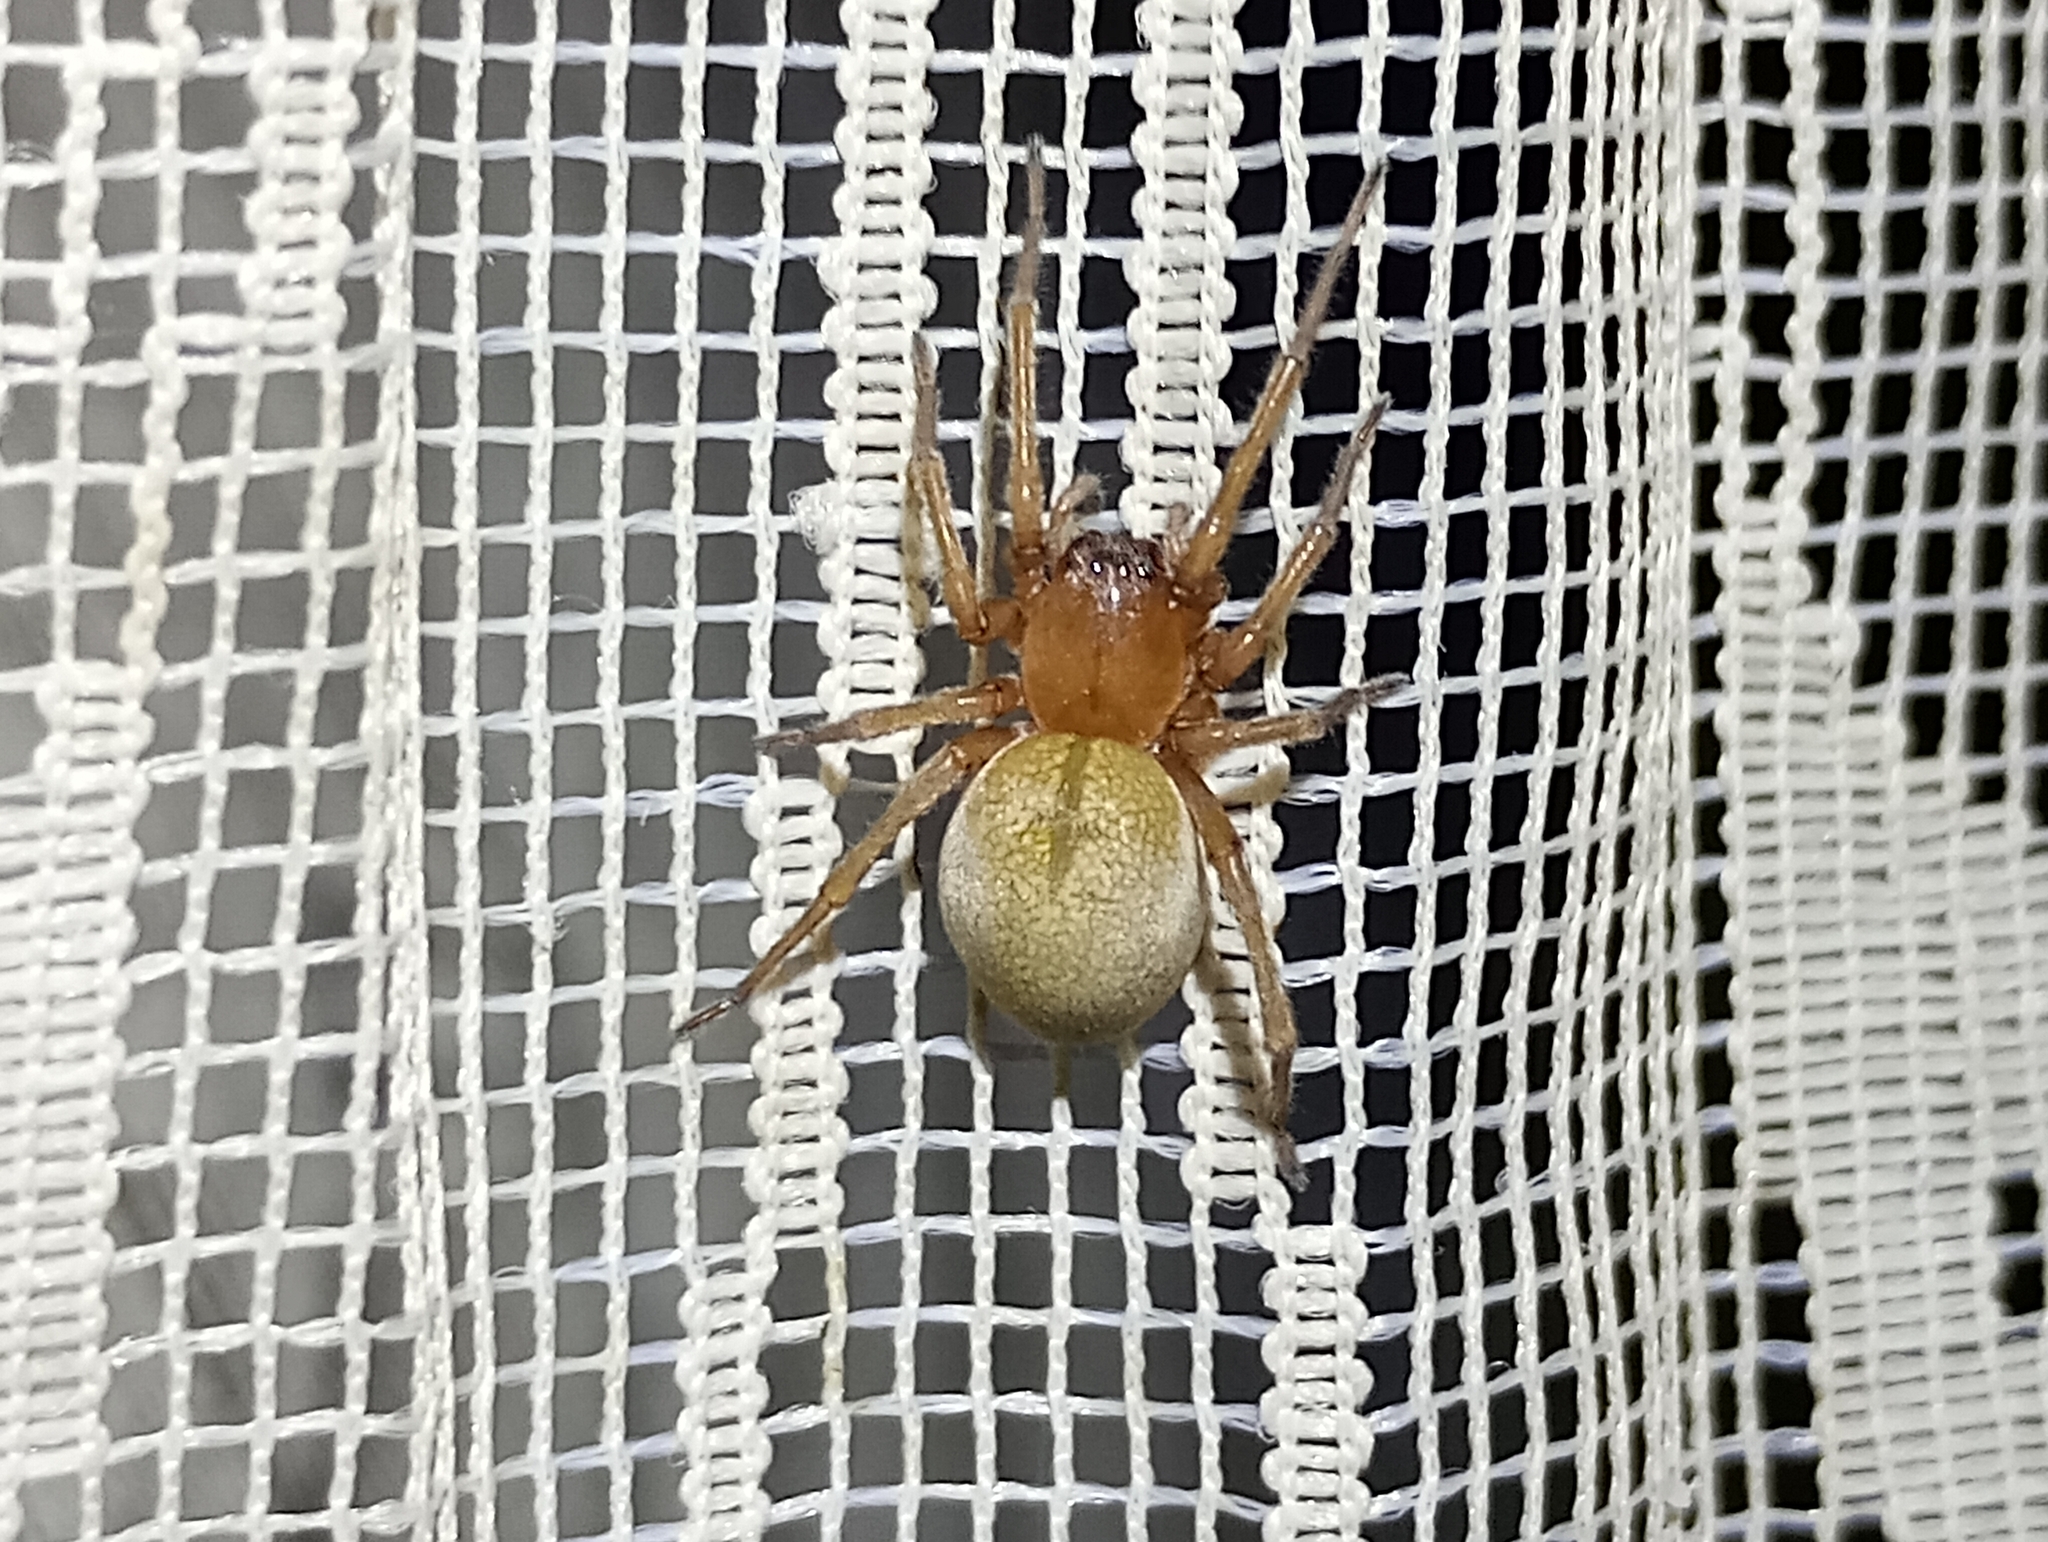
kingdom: Animalia
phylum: Arthropoda
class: Arachnida
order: Araneae
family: Cheiracanthiidae
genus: Cheiracanthium
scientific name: Cheiracanthium punctorium
